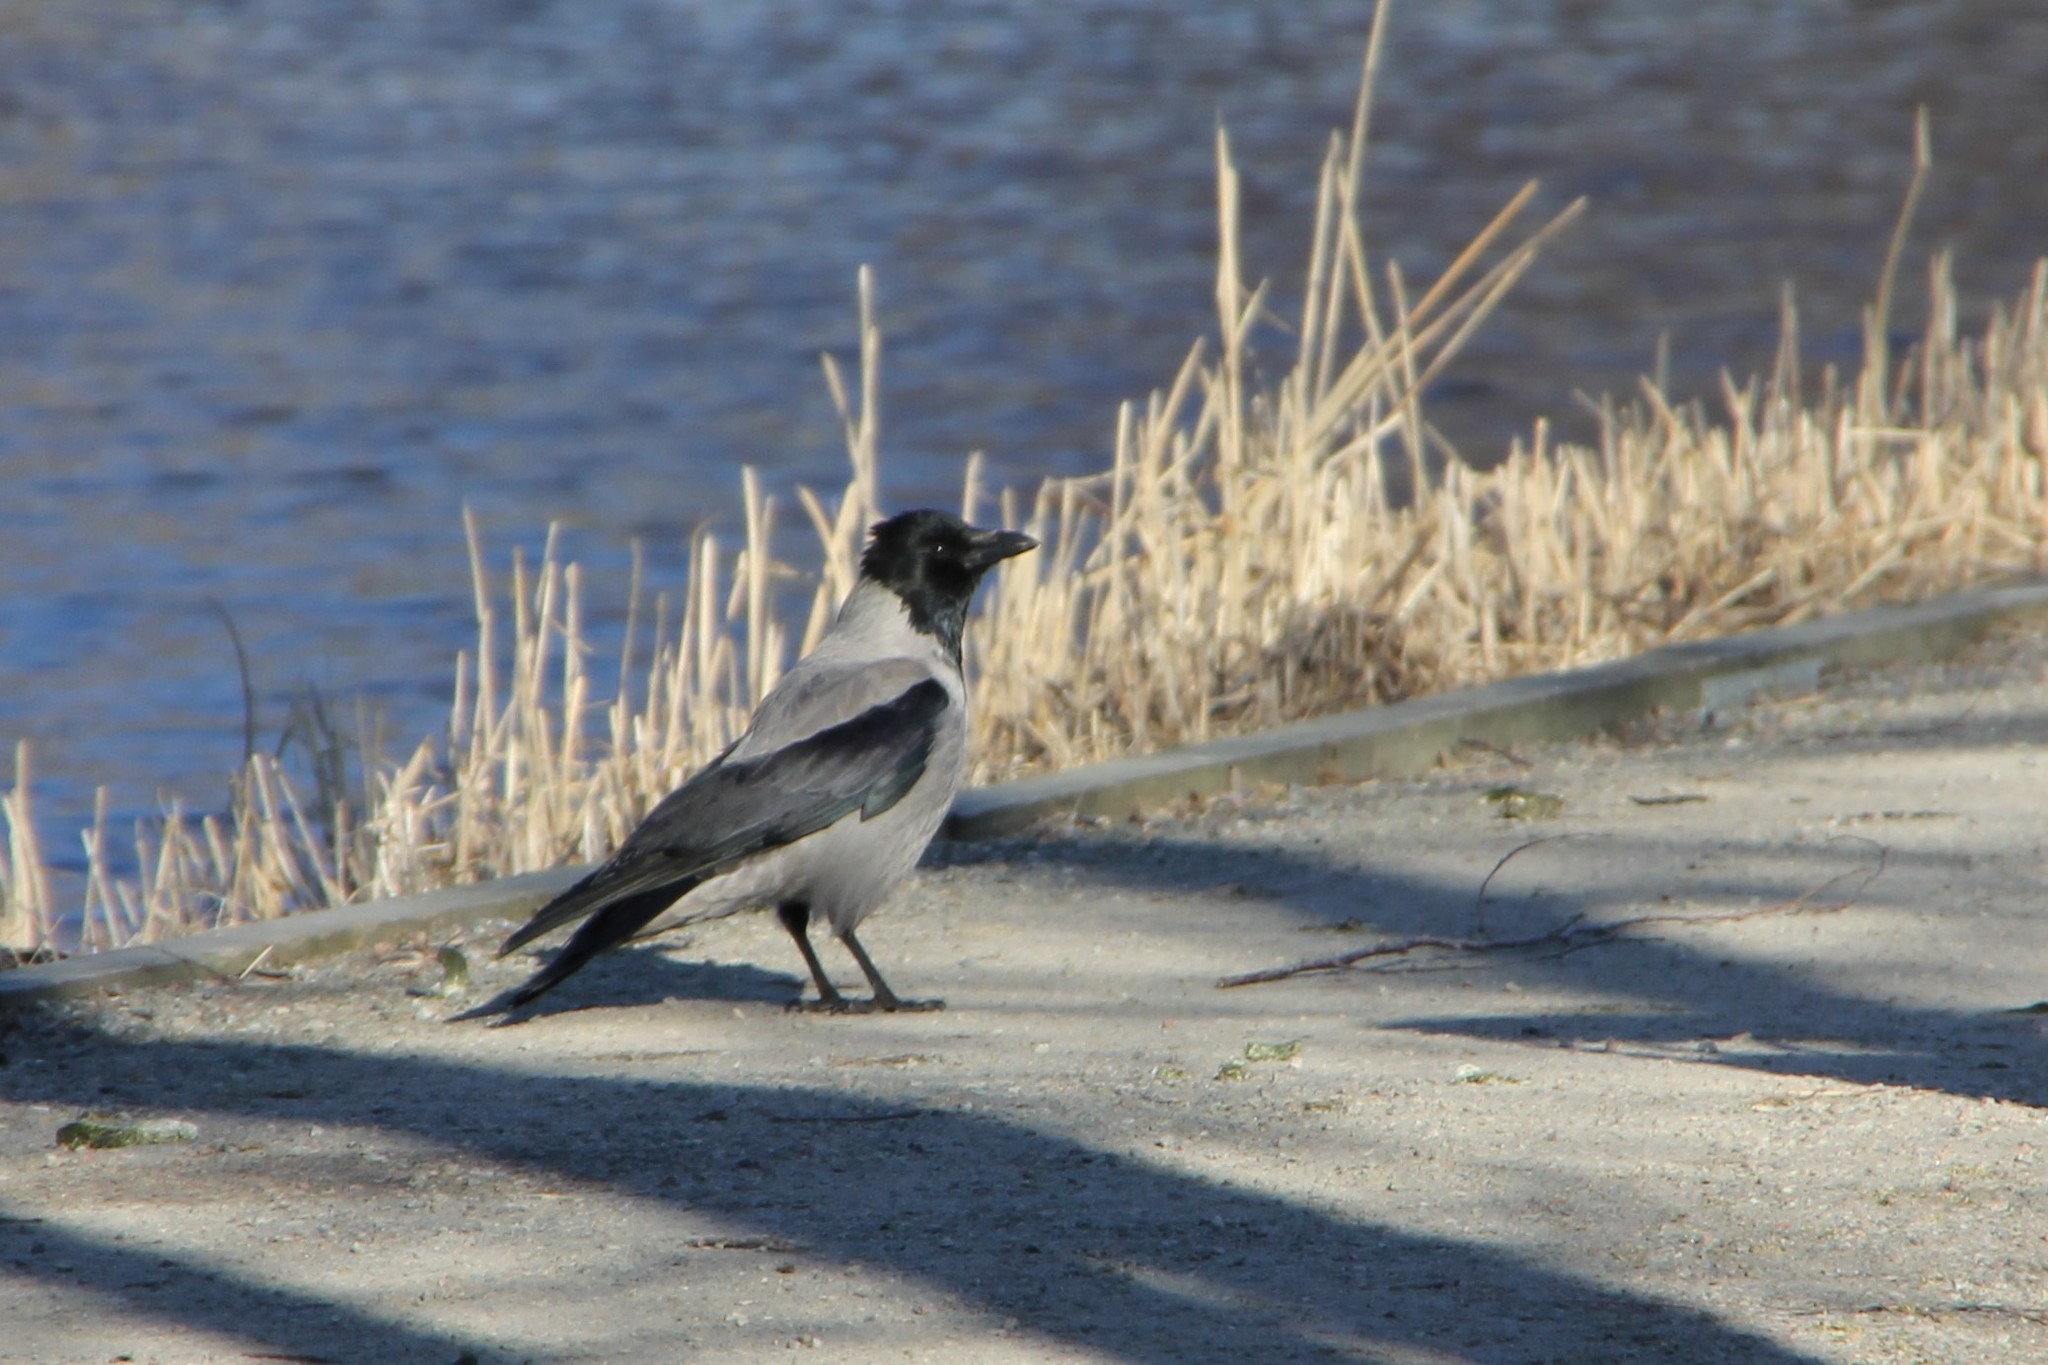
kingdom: Animalia
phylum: Chordata
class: Aves
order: Passeriformes
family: Corvidae
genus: Corvus
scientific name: Corvus cornix
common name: Hooded crow
